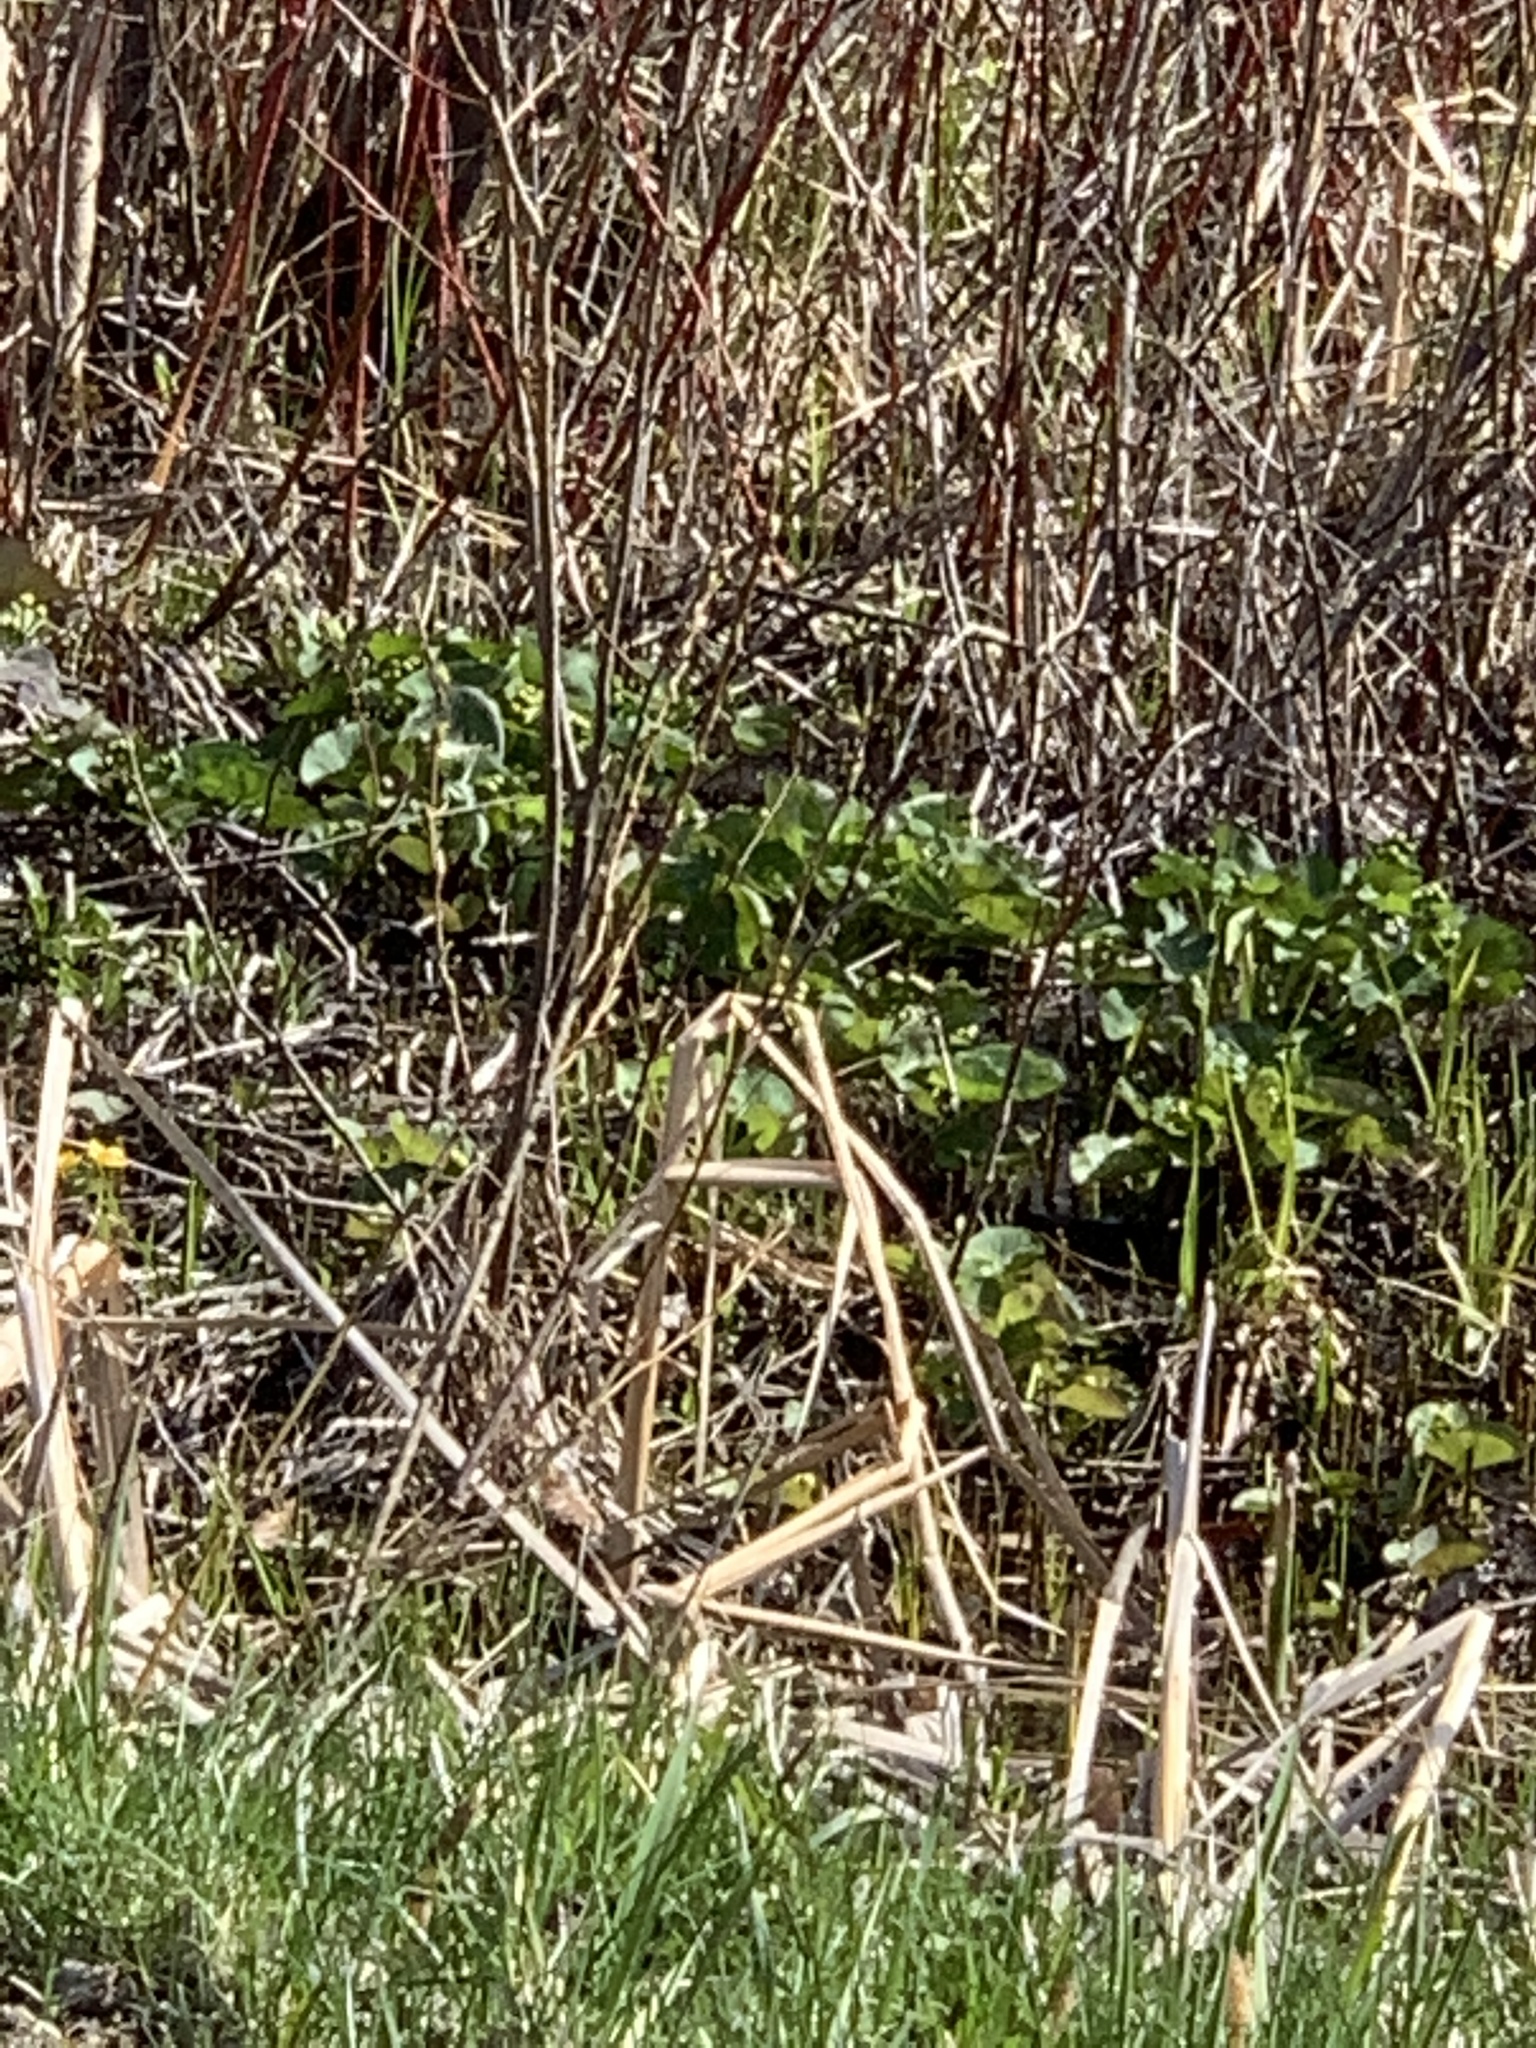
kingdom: Plantae
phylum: Tracheophyta
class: Magnoliopsida
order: Ranunculales
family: Ranunculaceae
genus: Caltha
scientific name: Caltha palustris
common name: Marsh marigold
